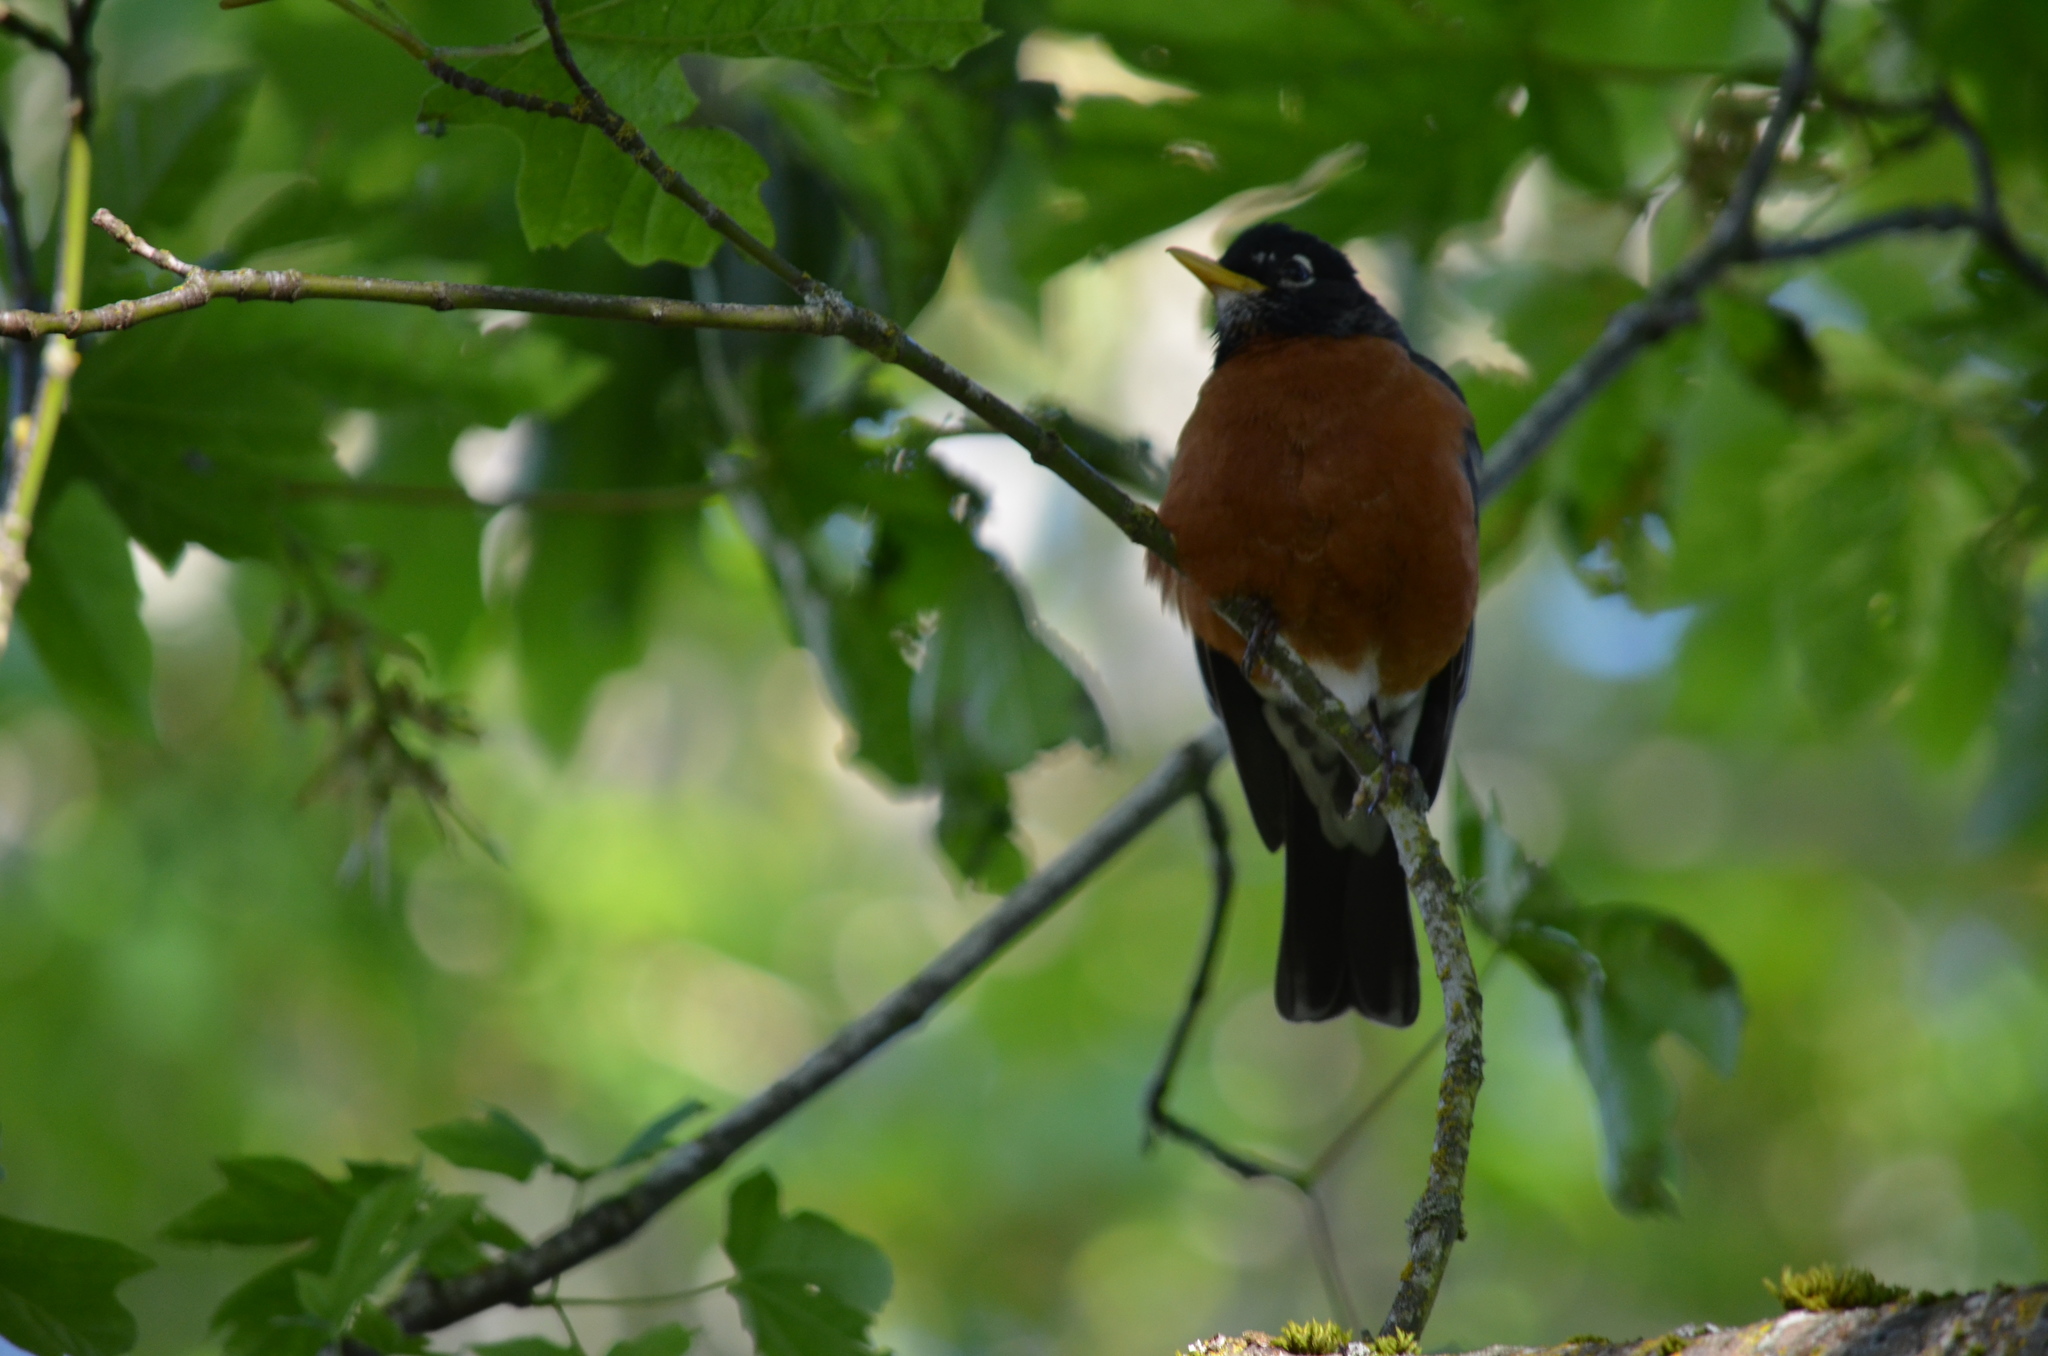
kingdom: Animalia
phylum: Chordata
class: Aves
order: Passeriformes
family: Turdidae
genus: Turdus
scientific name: Turdus migratorius
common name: American robin
